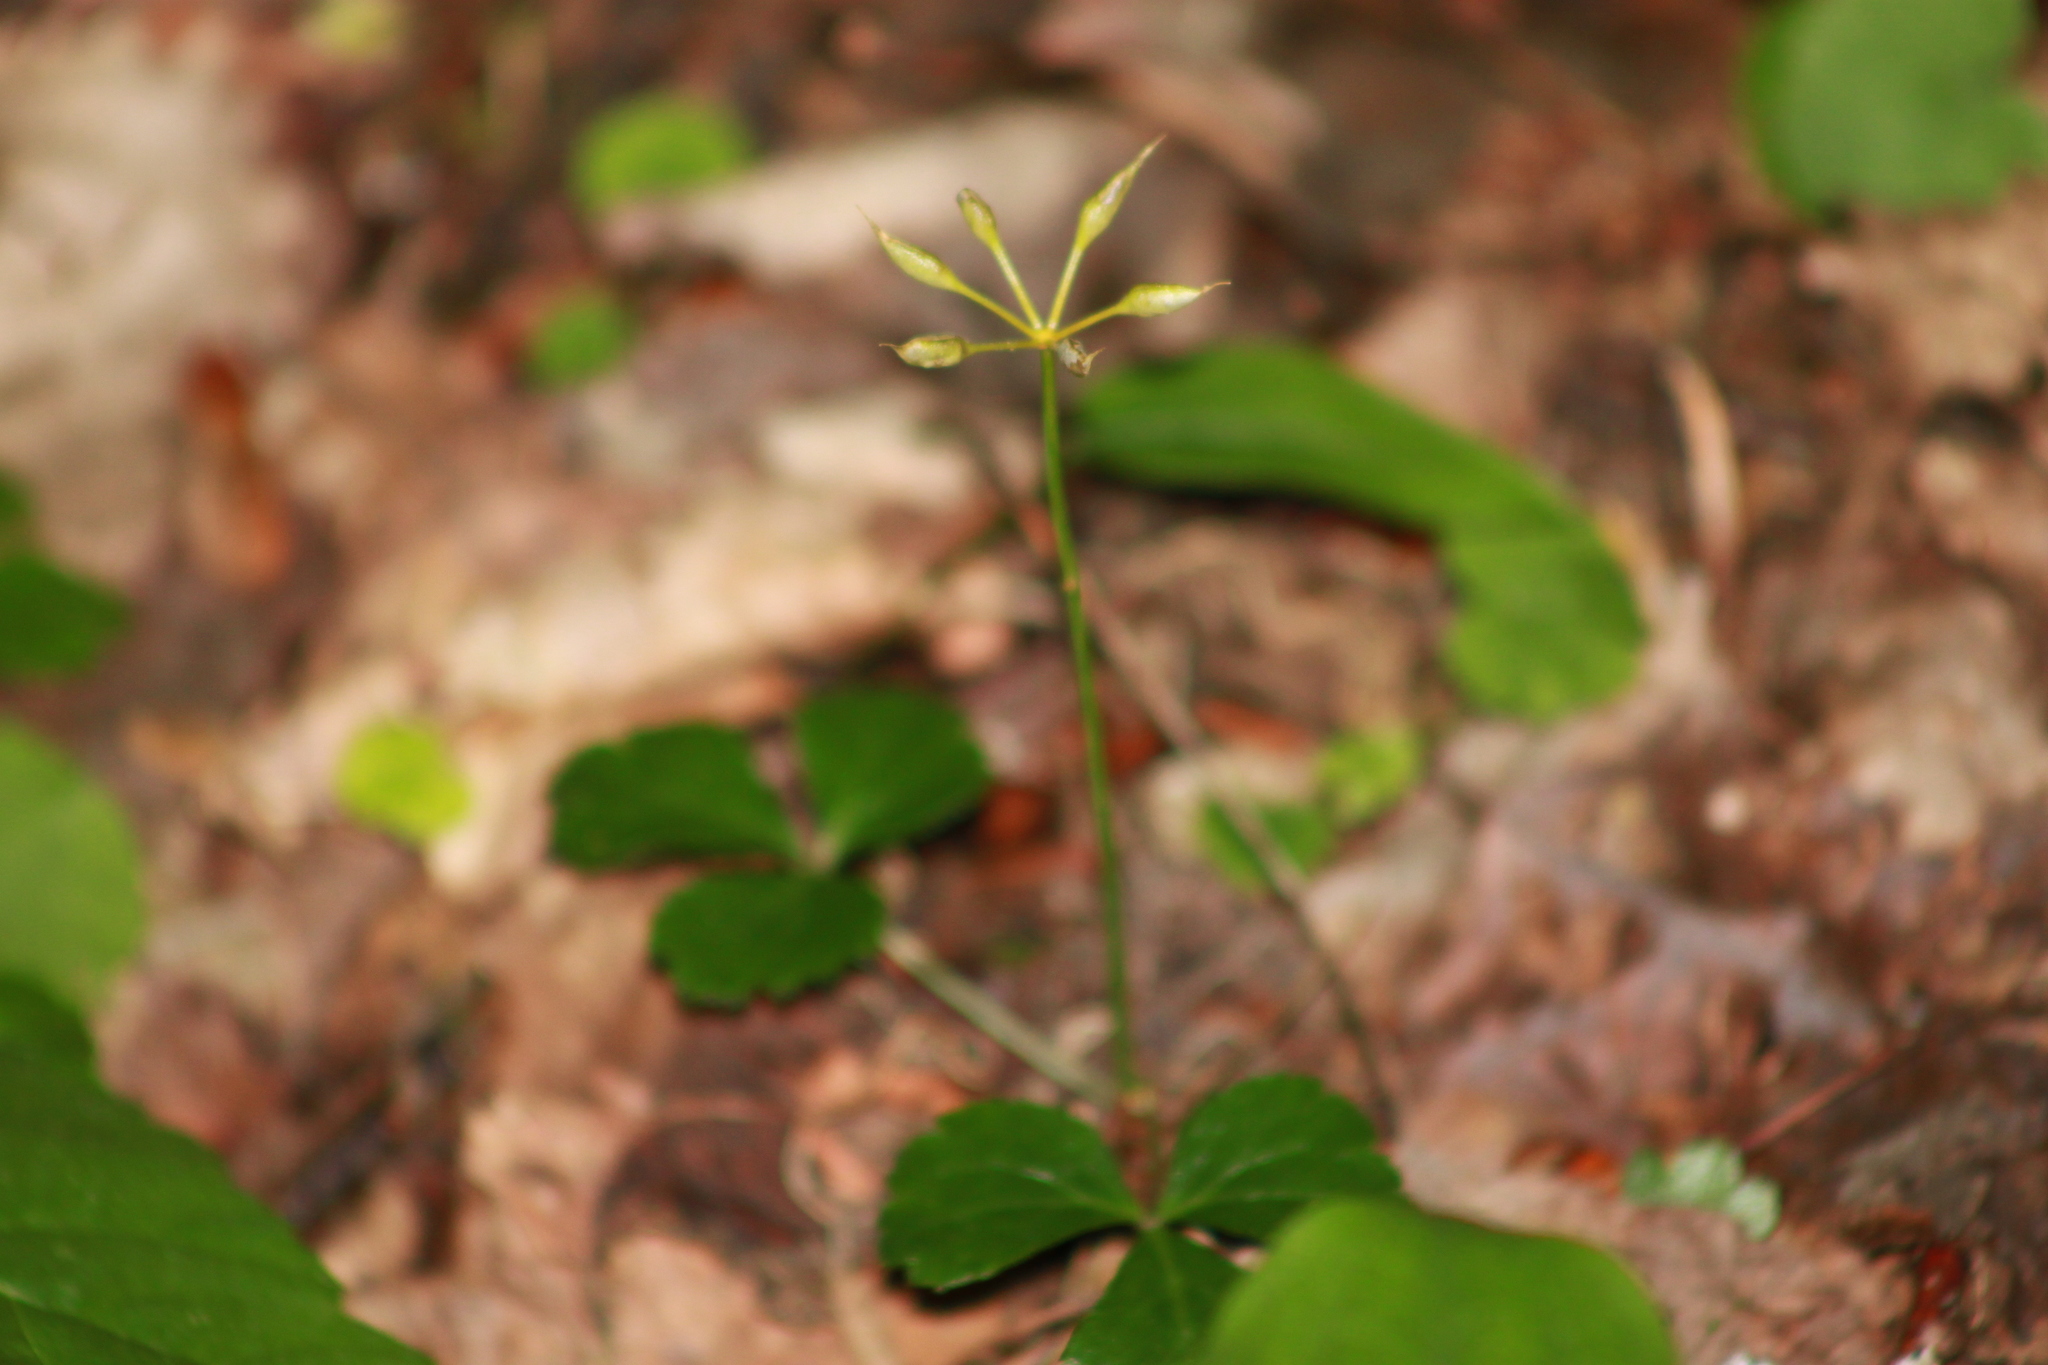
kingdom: Plantae
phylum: Tracheophyta
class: Magnoliopsida
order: Ranunculales
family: Ranunculaceae
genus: Coptis
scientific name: Coptis trifolia
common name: Canker-root
